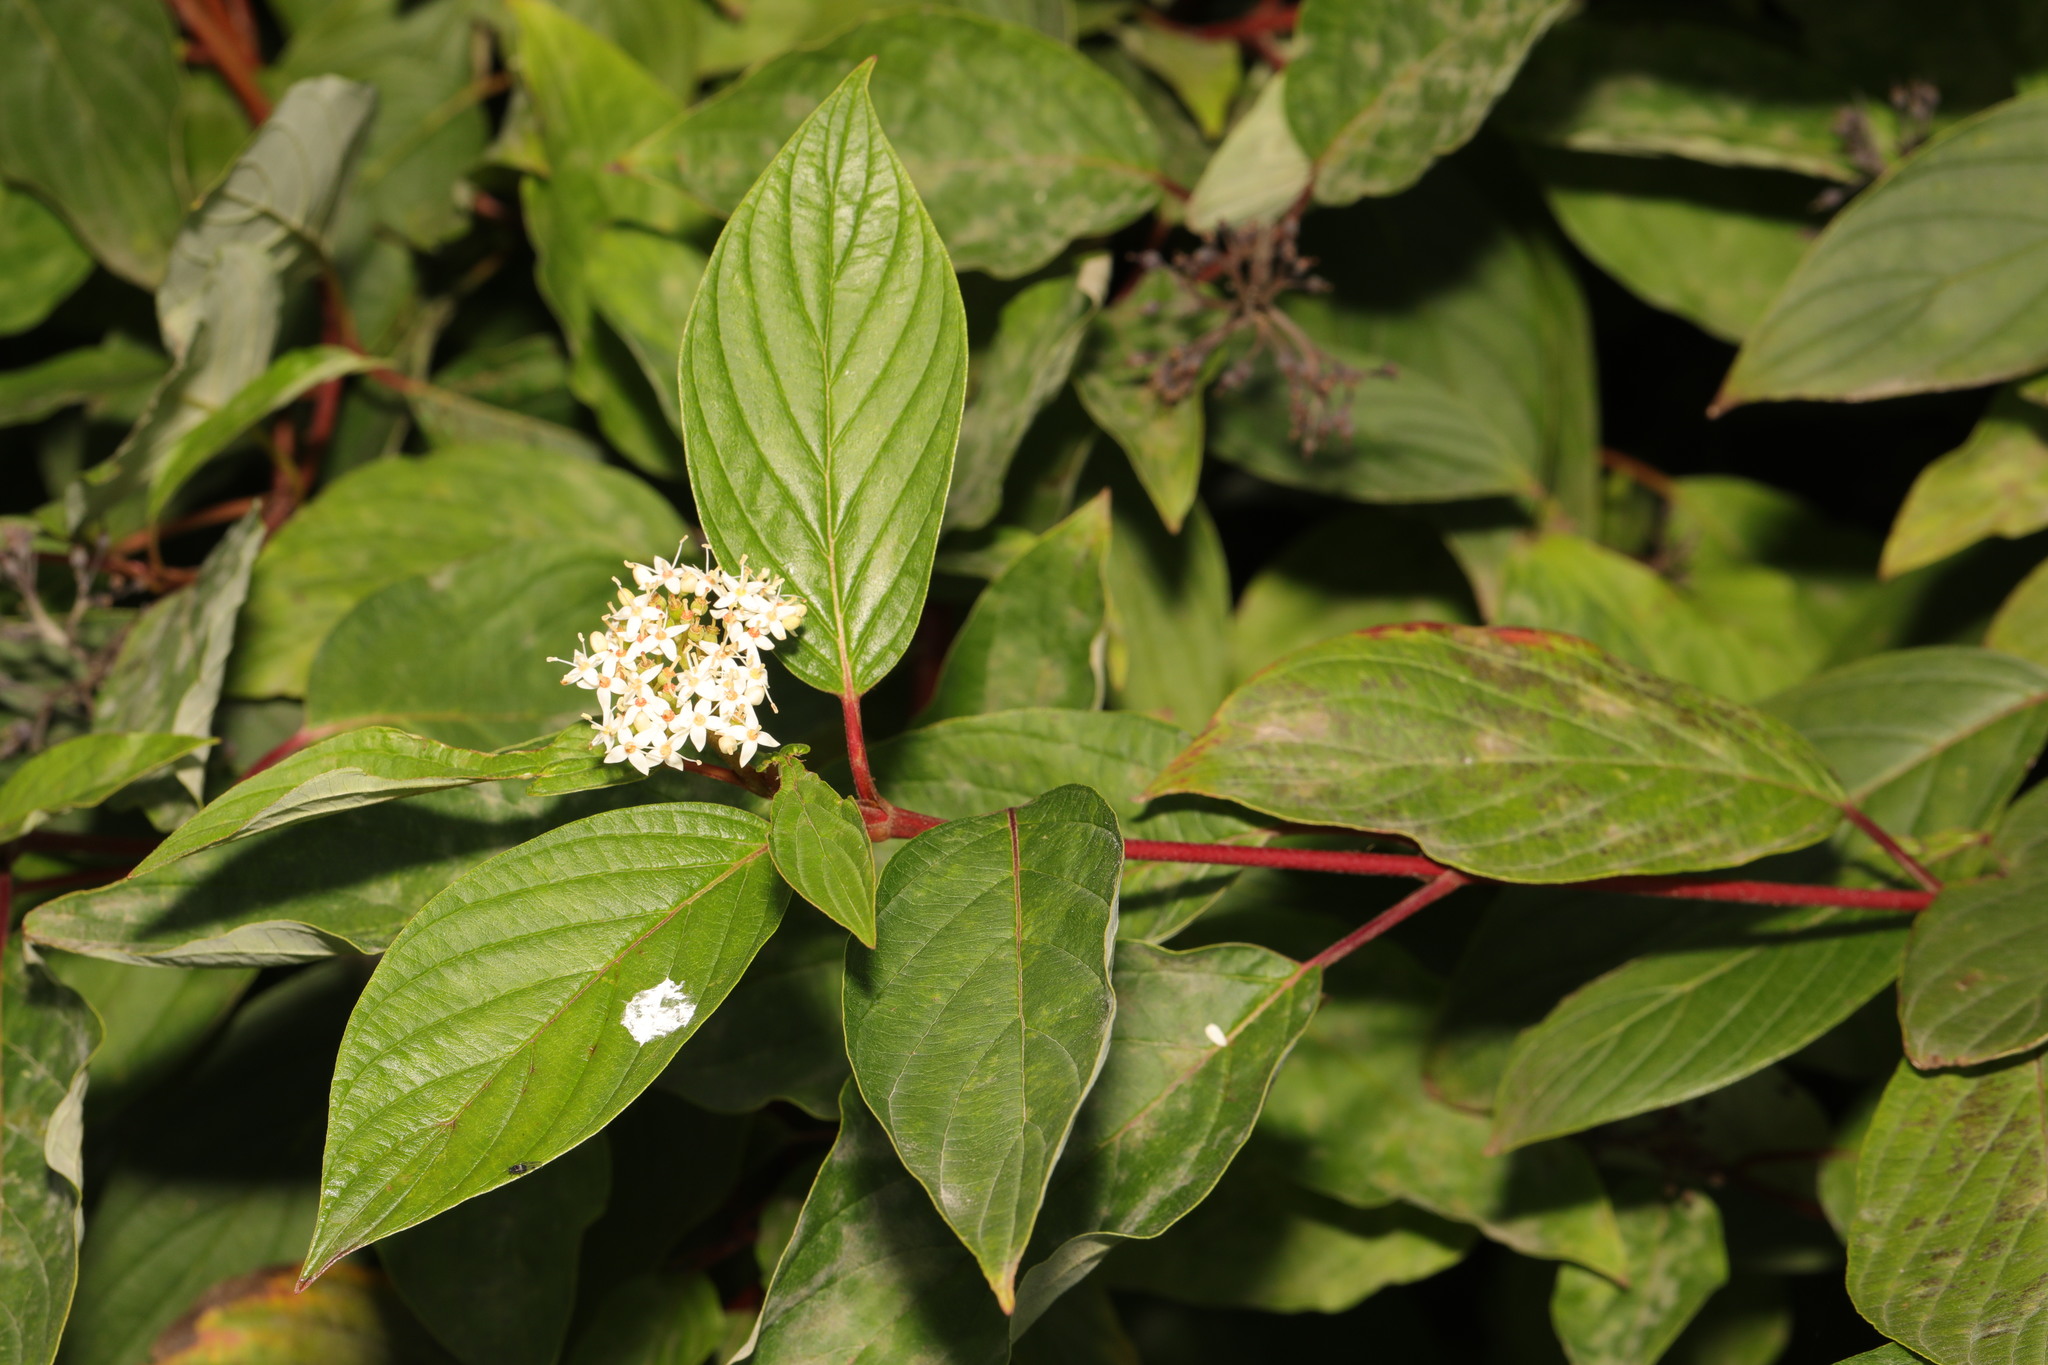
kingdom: Plantae
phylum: Tracheophyta
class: Magnoliopsida
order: Cornales
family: Cornaceae
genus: Cornus
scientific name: Cornus sericea
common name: Red-osier dogwood
